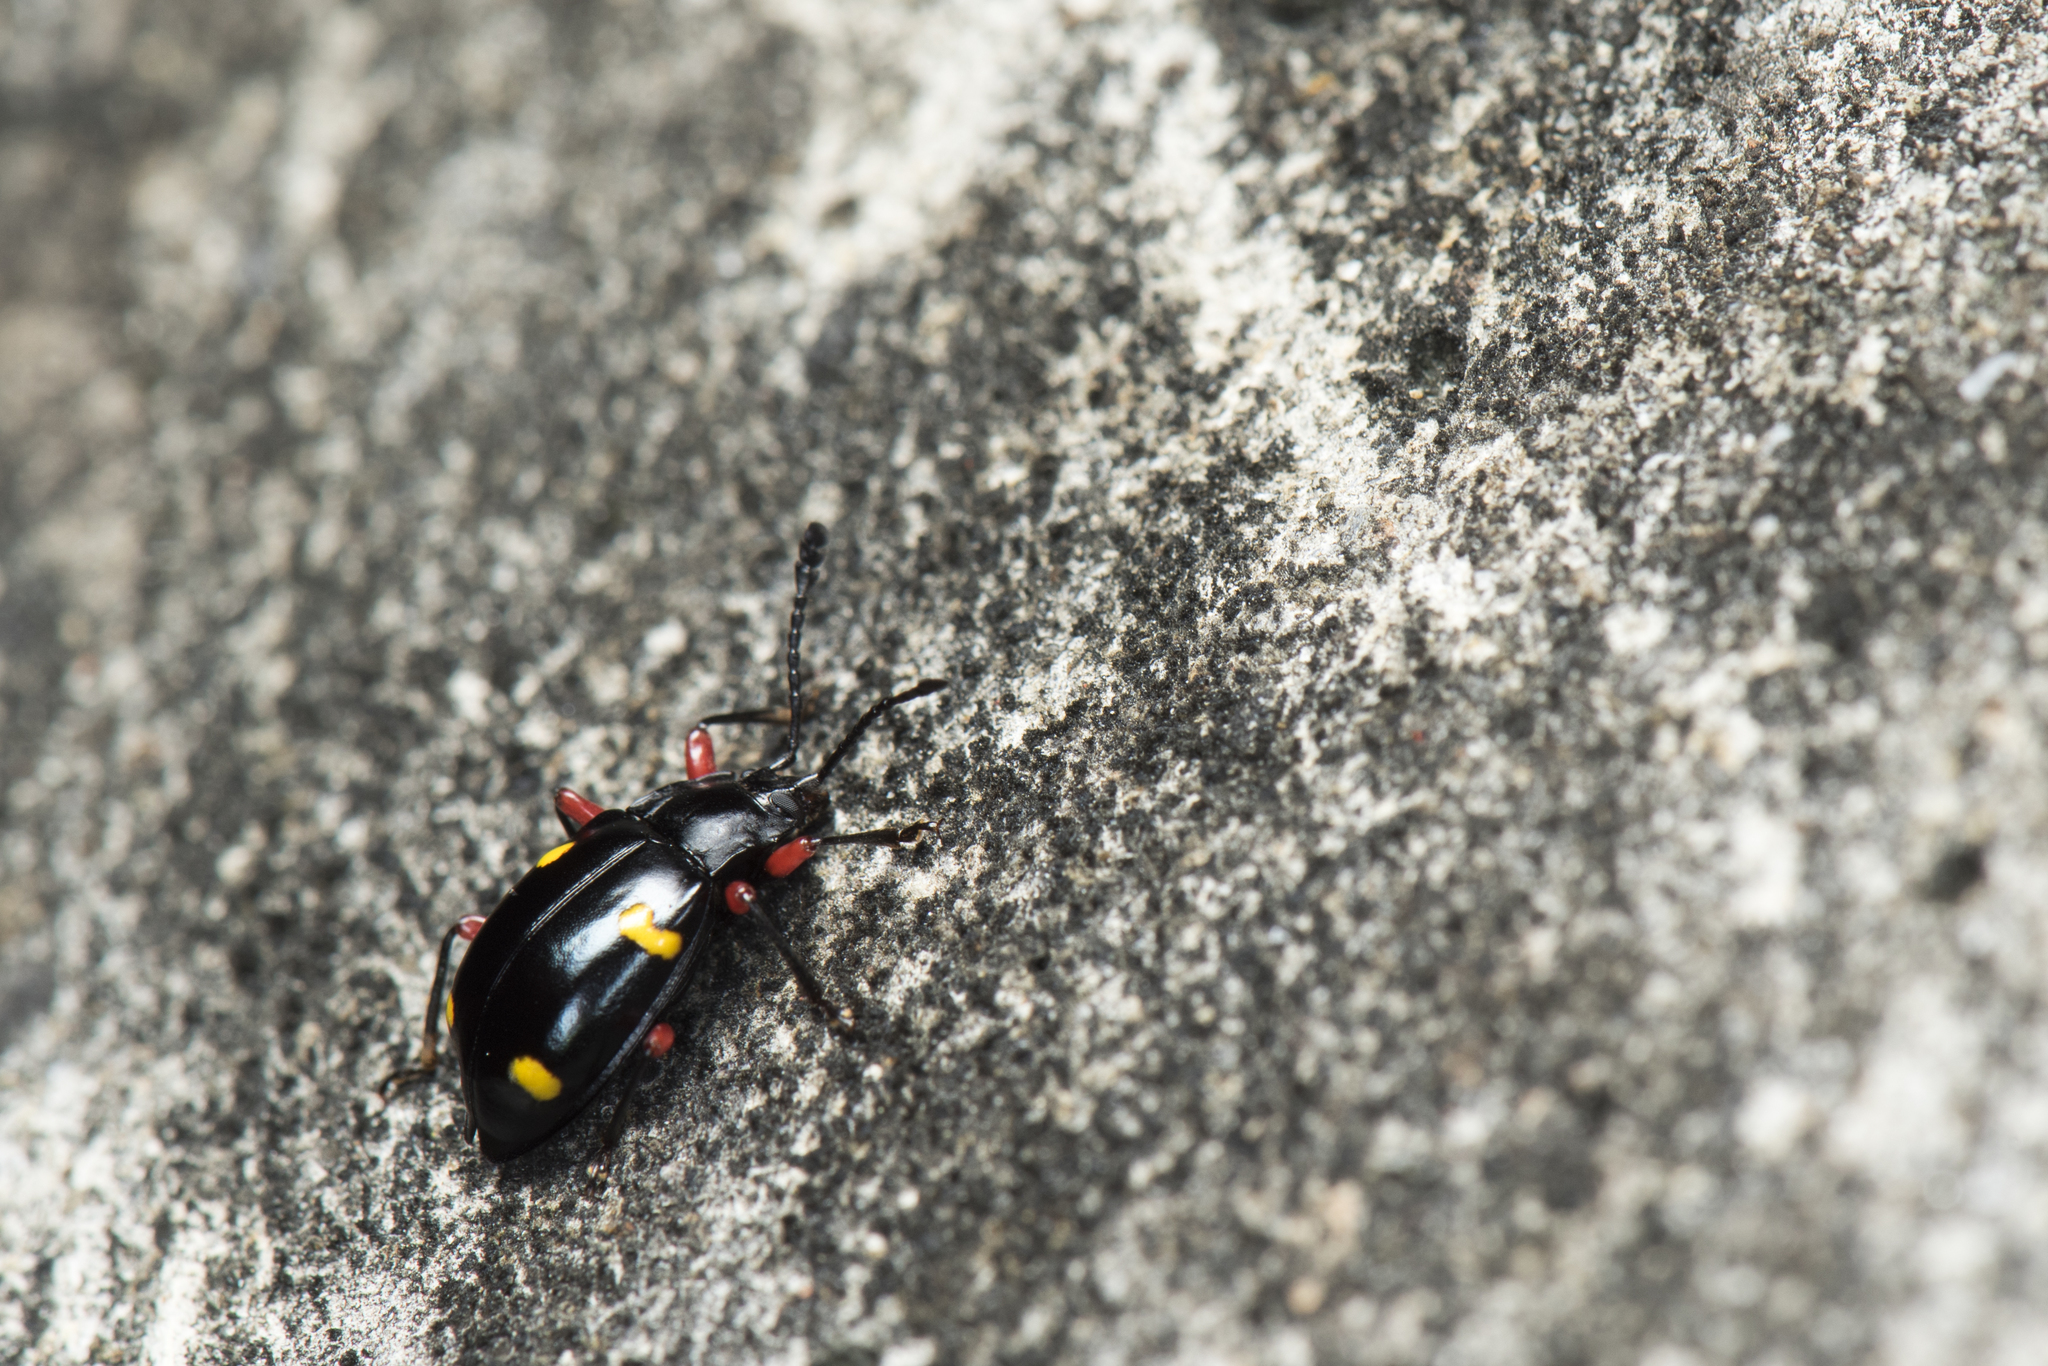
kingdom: Animalia
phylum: Arthropoda
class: Insecta
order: Coleoptera
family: Endomychidae
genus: Eumorphus
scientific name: Eumorphus quadriguttatus
